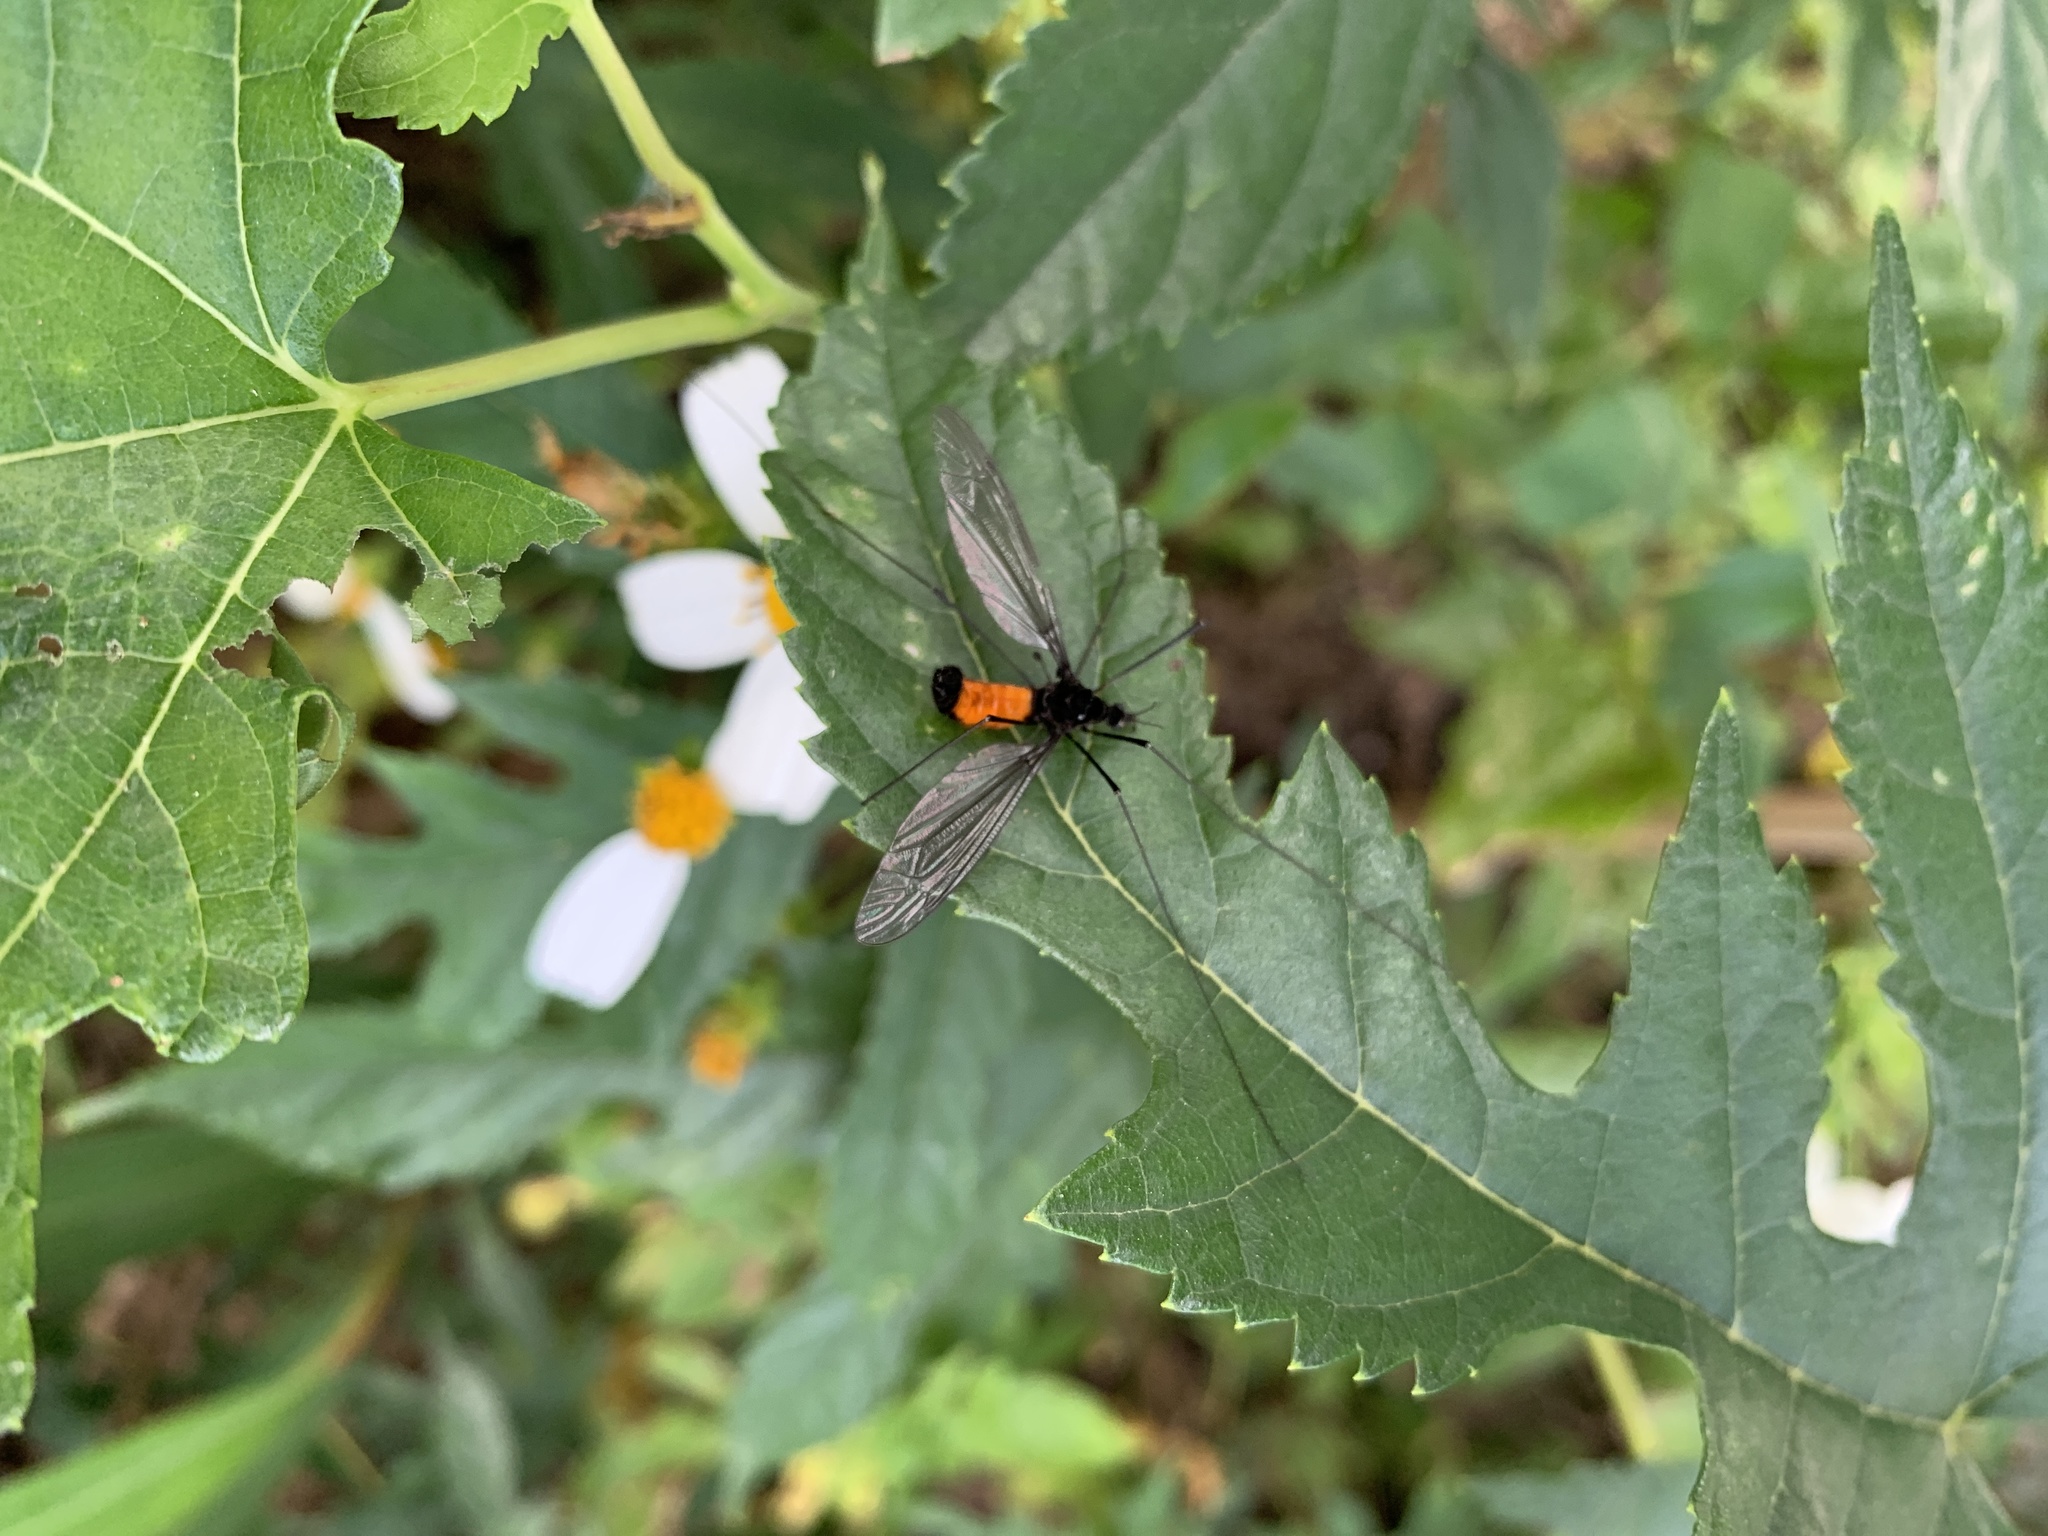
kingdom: Animalia
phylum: Arthropoda
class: Insecta
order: Diptera
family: Tipulidae
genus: Tipula
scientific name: Tipula holoserica
